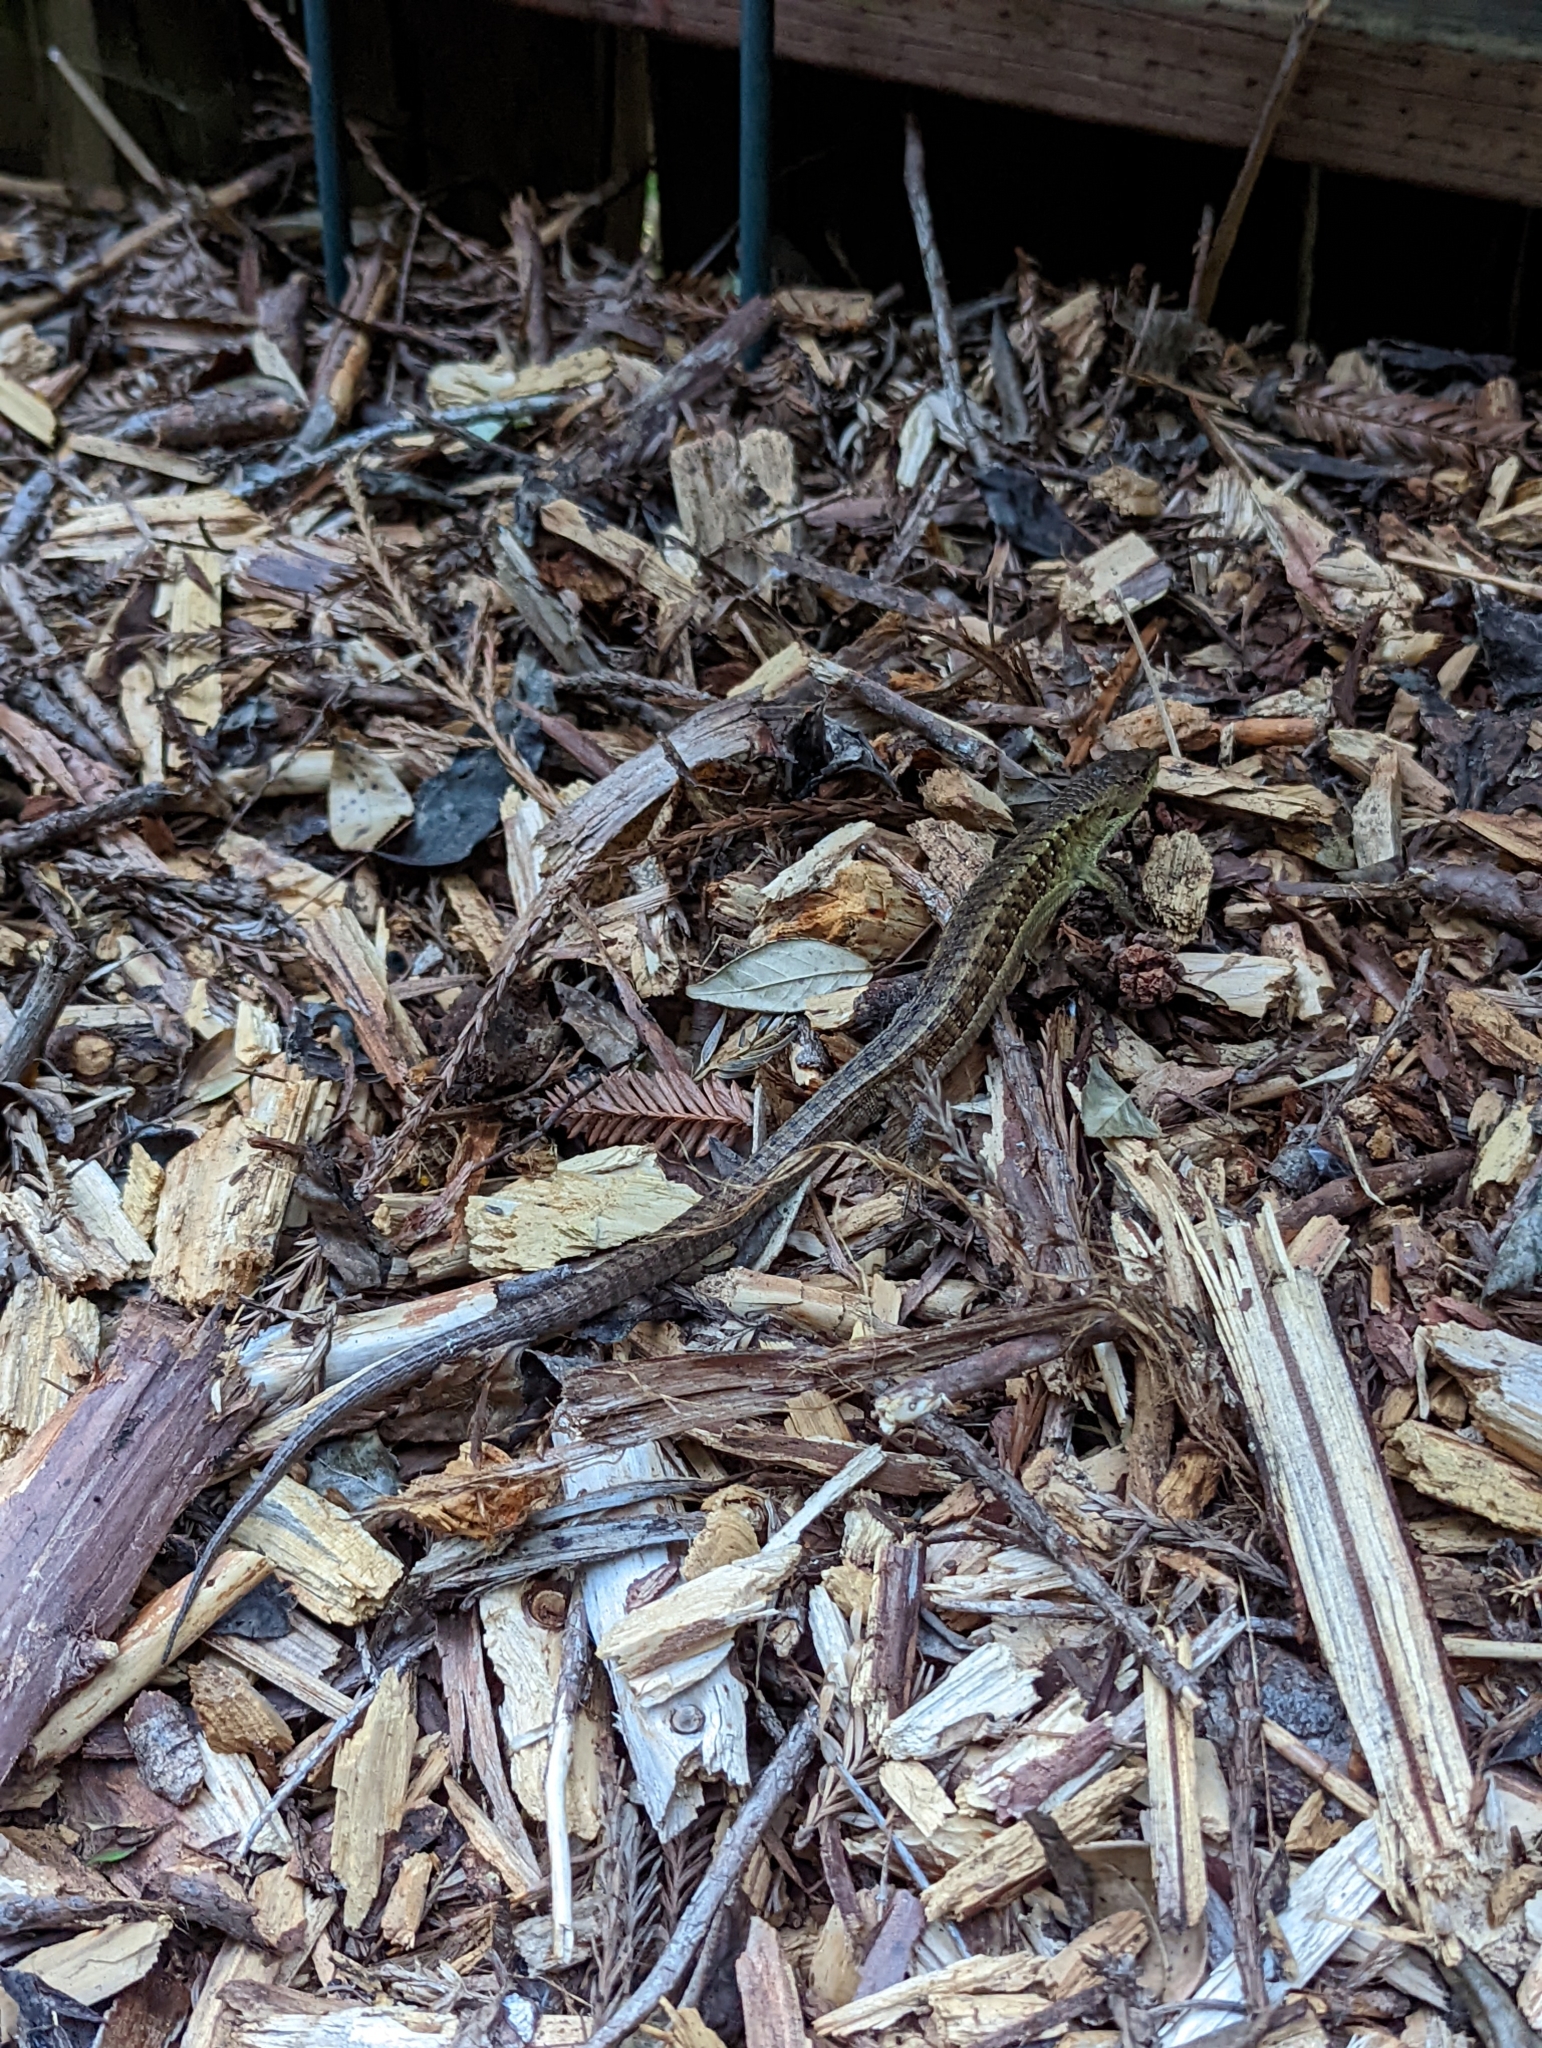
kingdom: Animalia
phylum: Chordata
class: Squamata
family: Anguidae
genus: Elgaria
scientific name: Elgaria coerulea
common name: Northern alligator lizard
